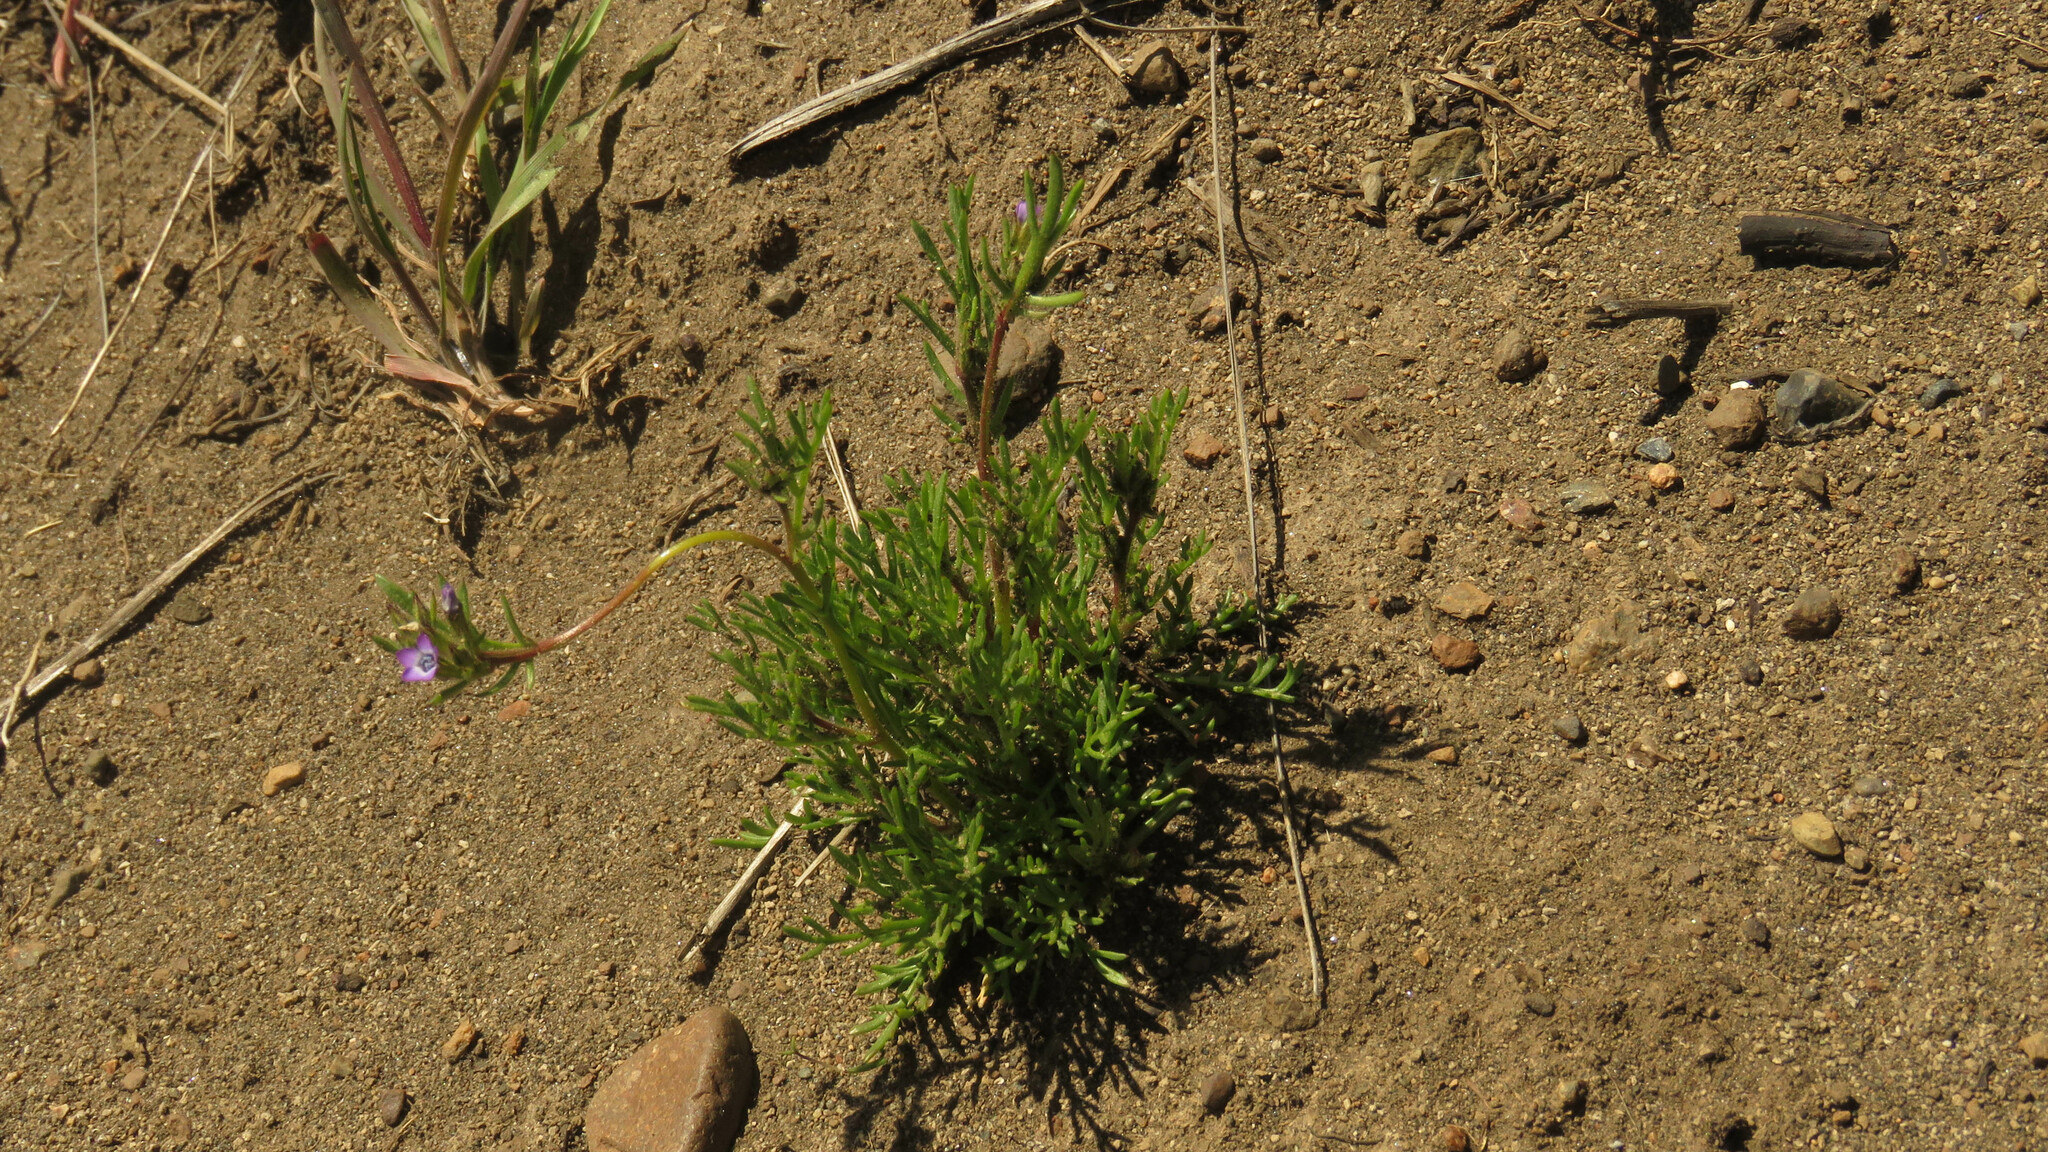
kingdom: Plantae
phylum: Tracheophyta
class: Magnoliopsida
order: Ericales
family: Polemoniaceae
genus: Gilia
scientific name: Gilia laciniata
